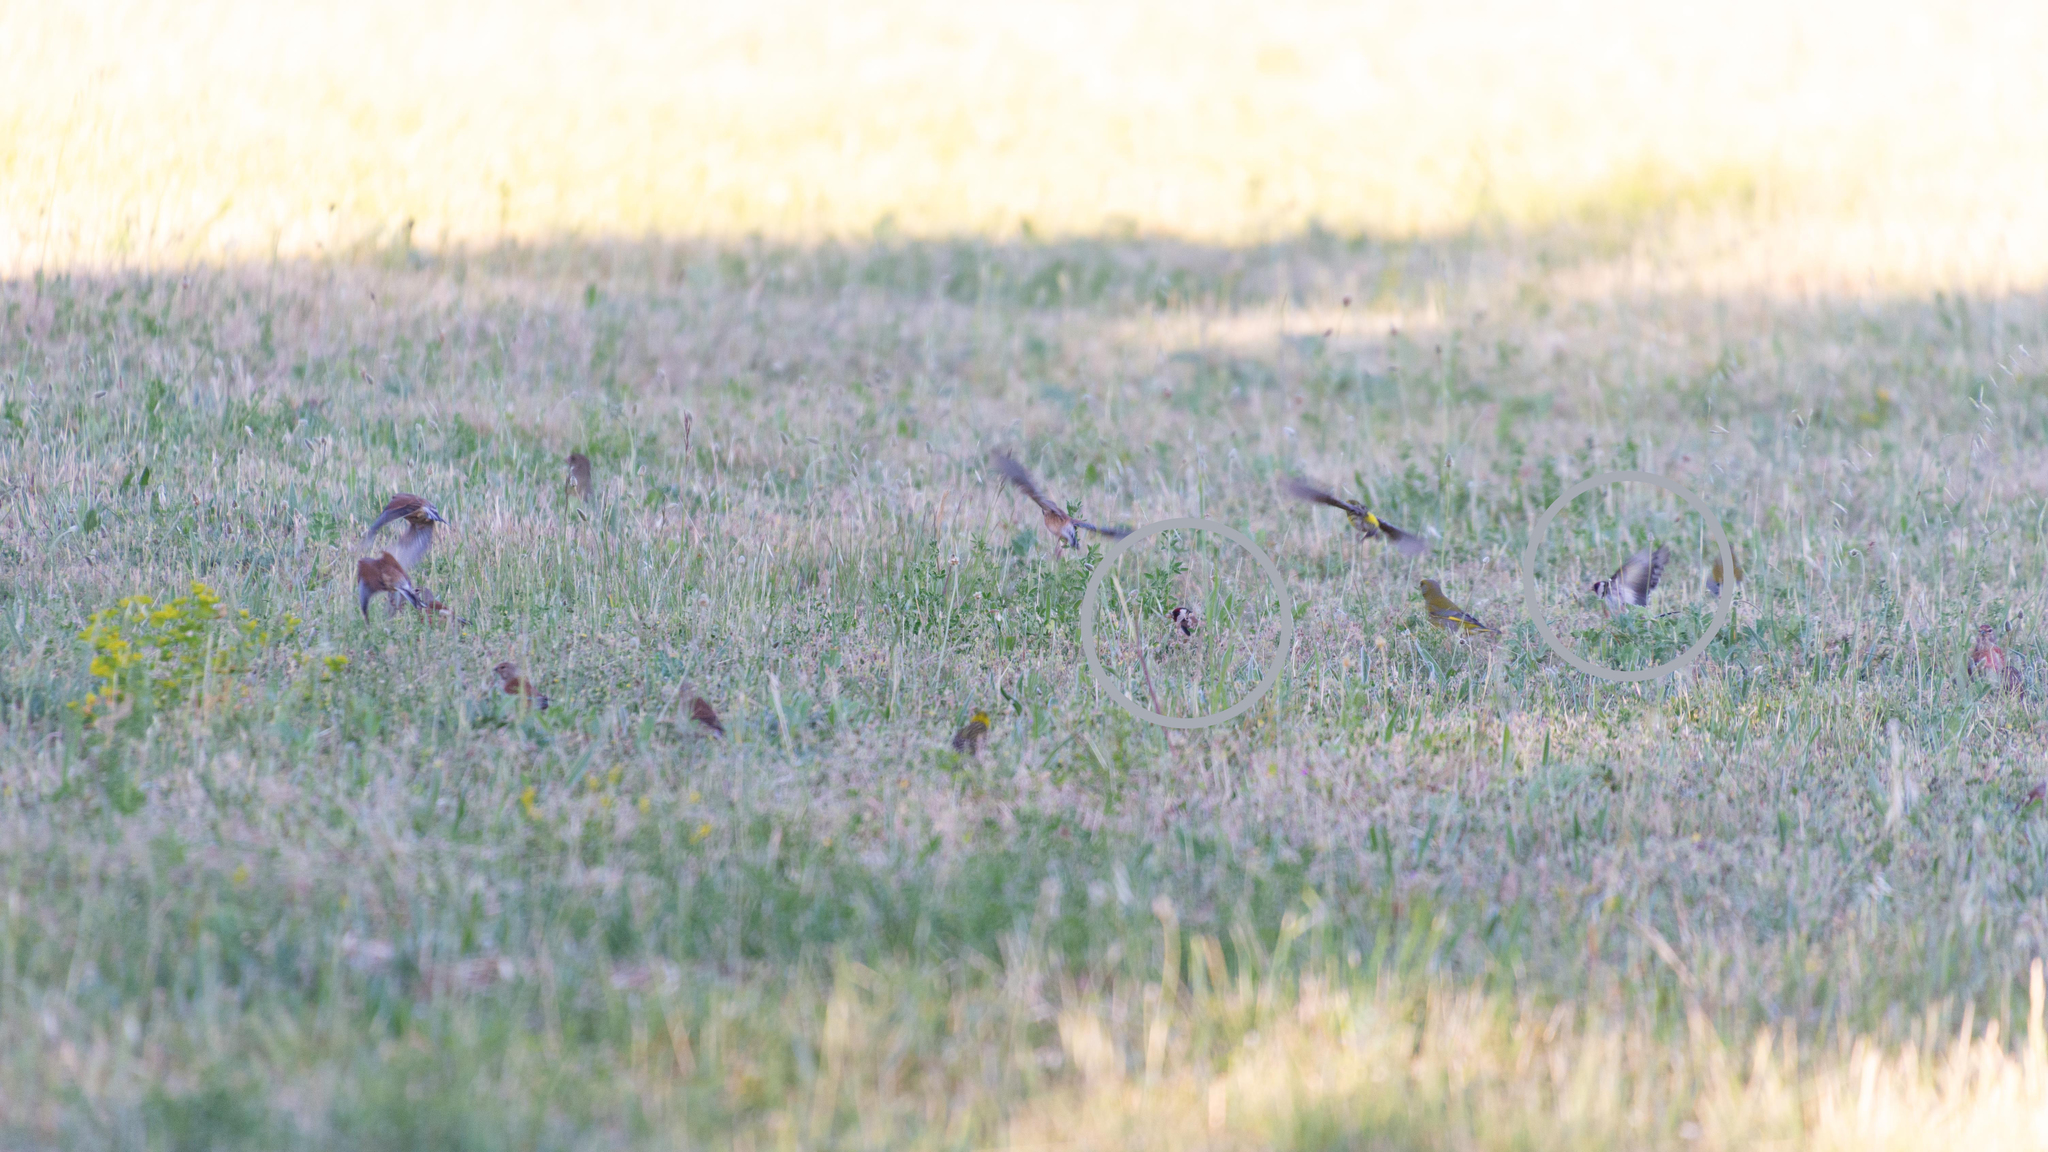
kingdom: Animalia
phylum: Chordata
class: Aves
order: Passeriformes
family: Fringillidae
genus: Carduelis
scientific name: Carduelis carduelis
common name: European goldfinch
